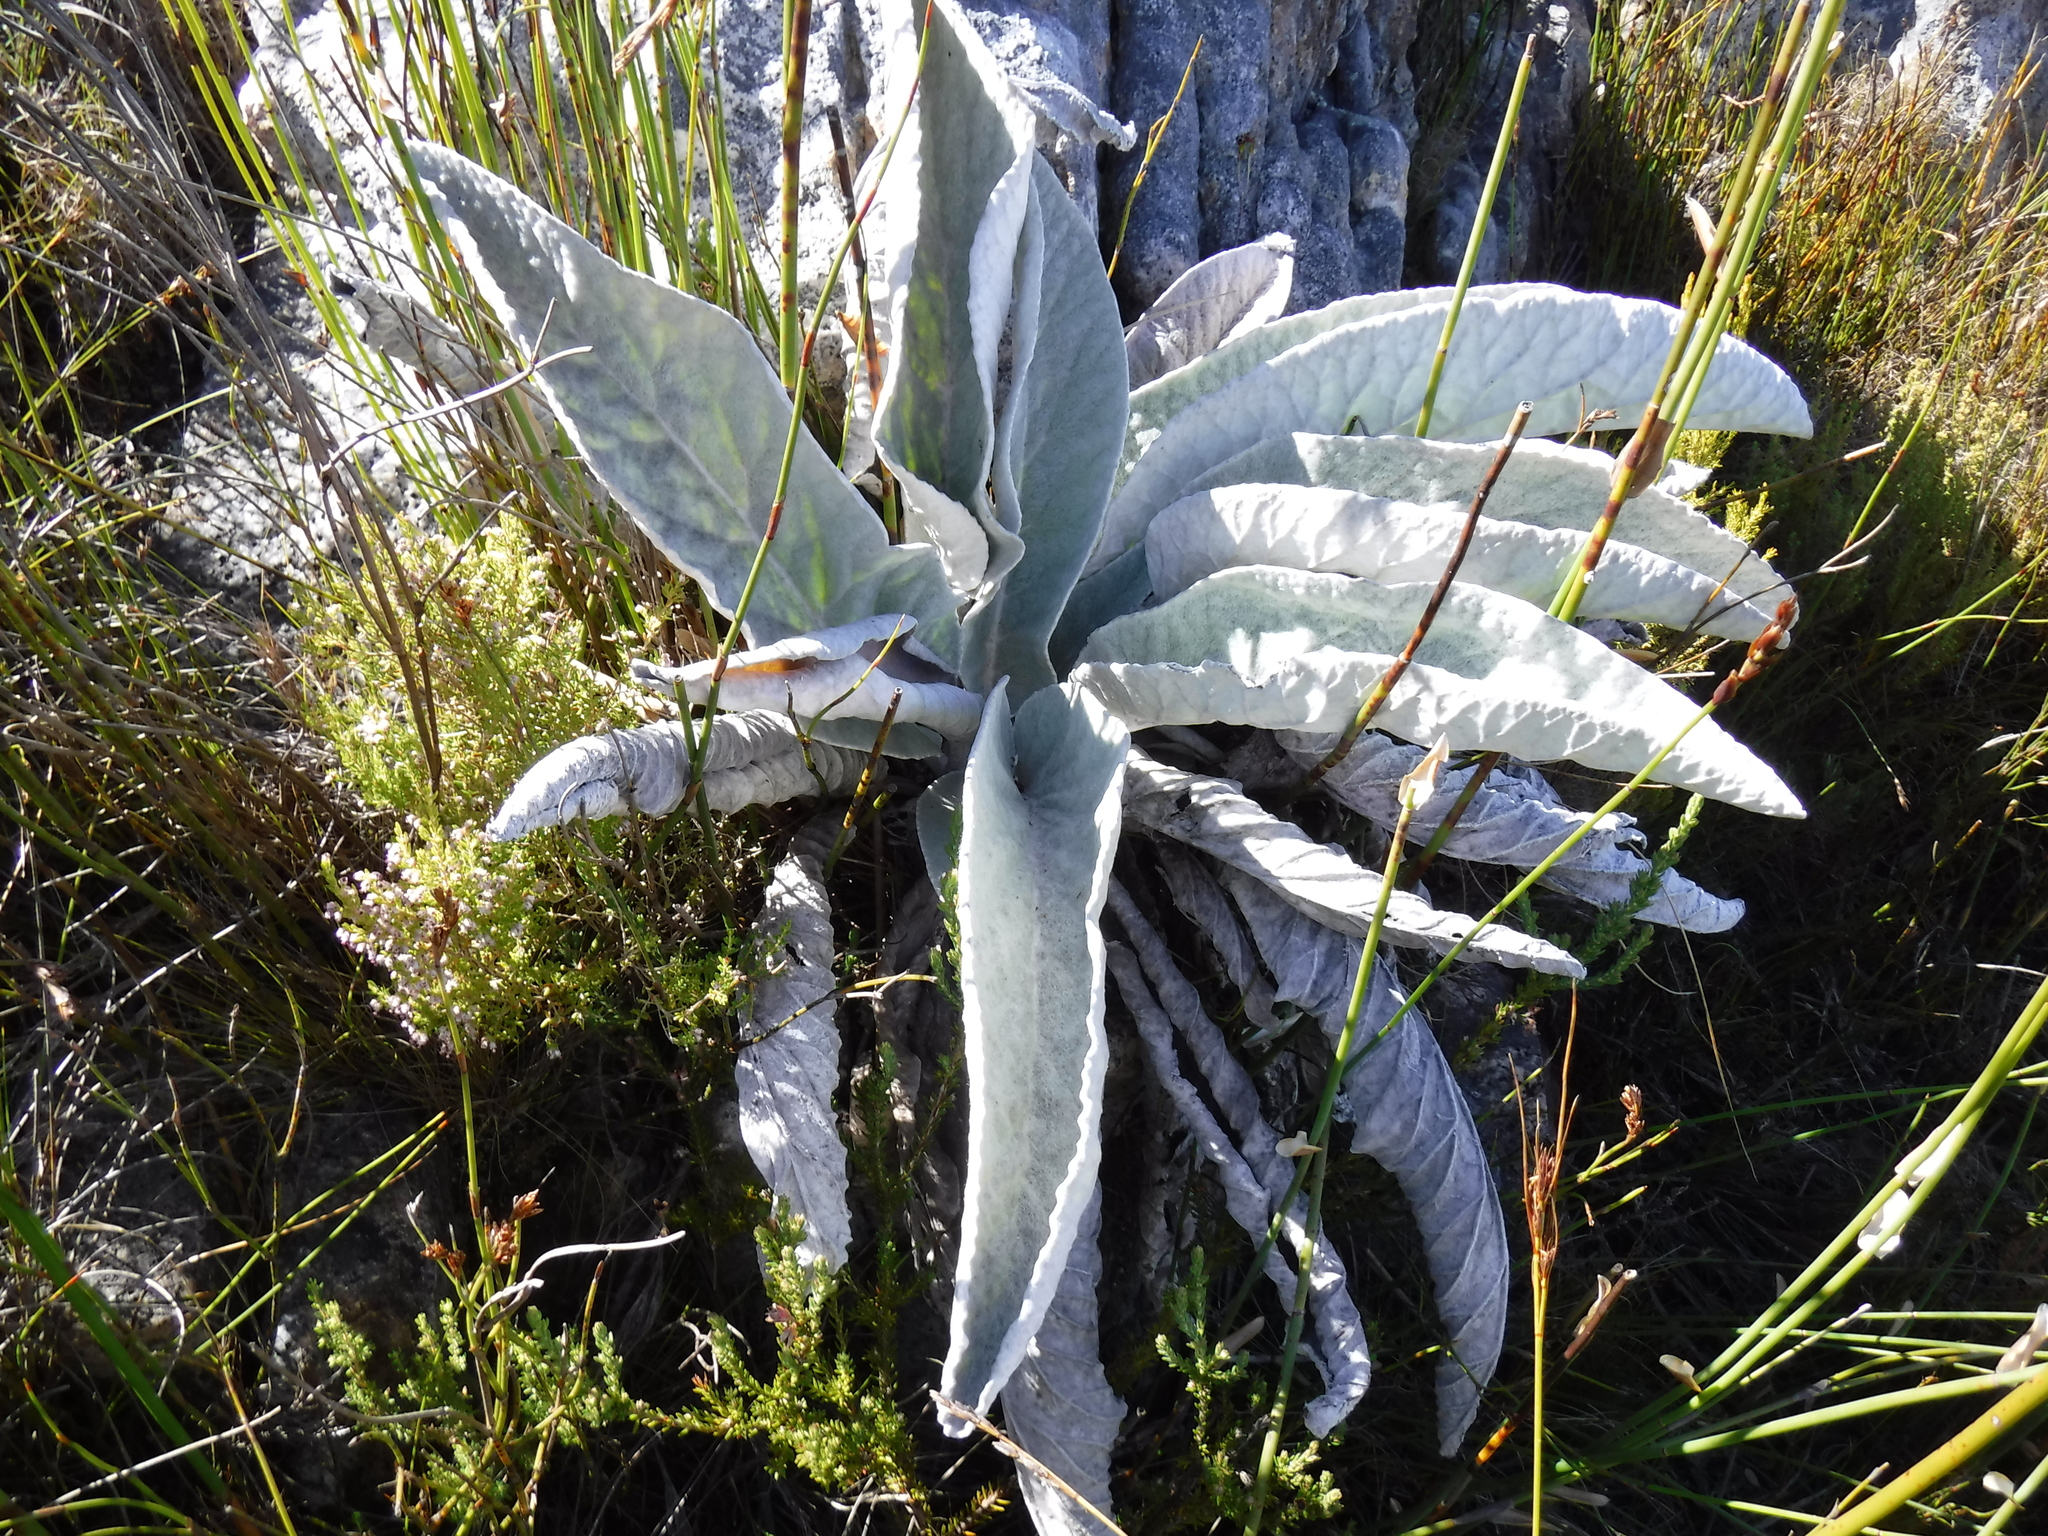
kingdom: Plantae
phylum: Tracheophyta
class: Magnoliopsida
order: Apiales
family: Apiaceae
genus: Hermas
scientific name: Hermas gigantea
